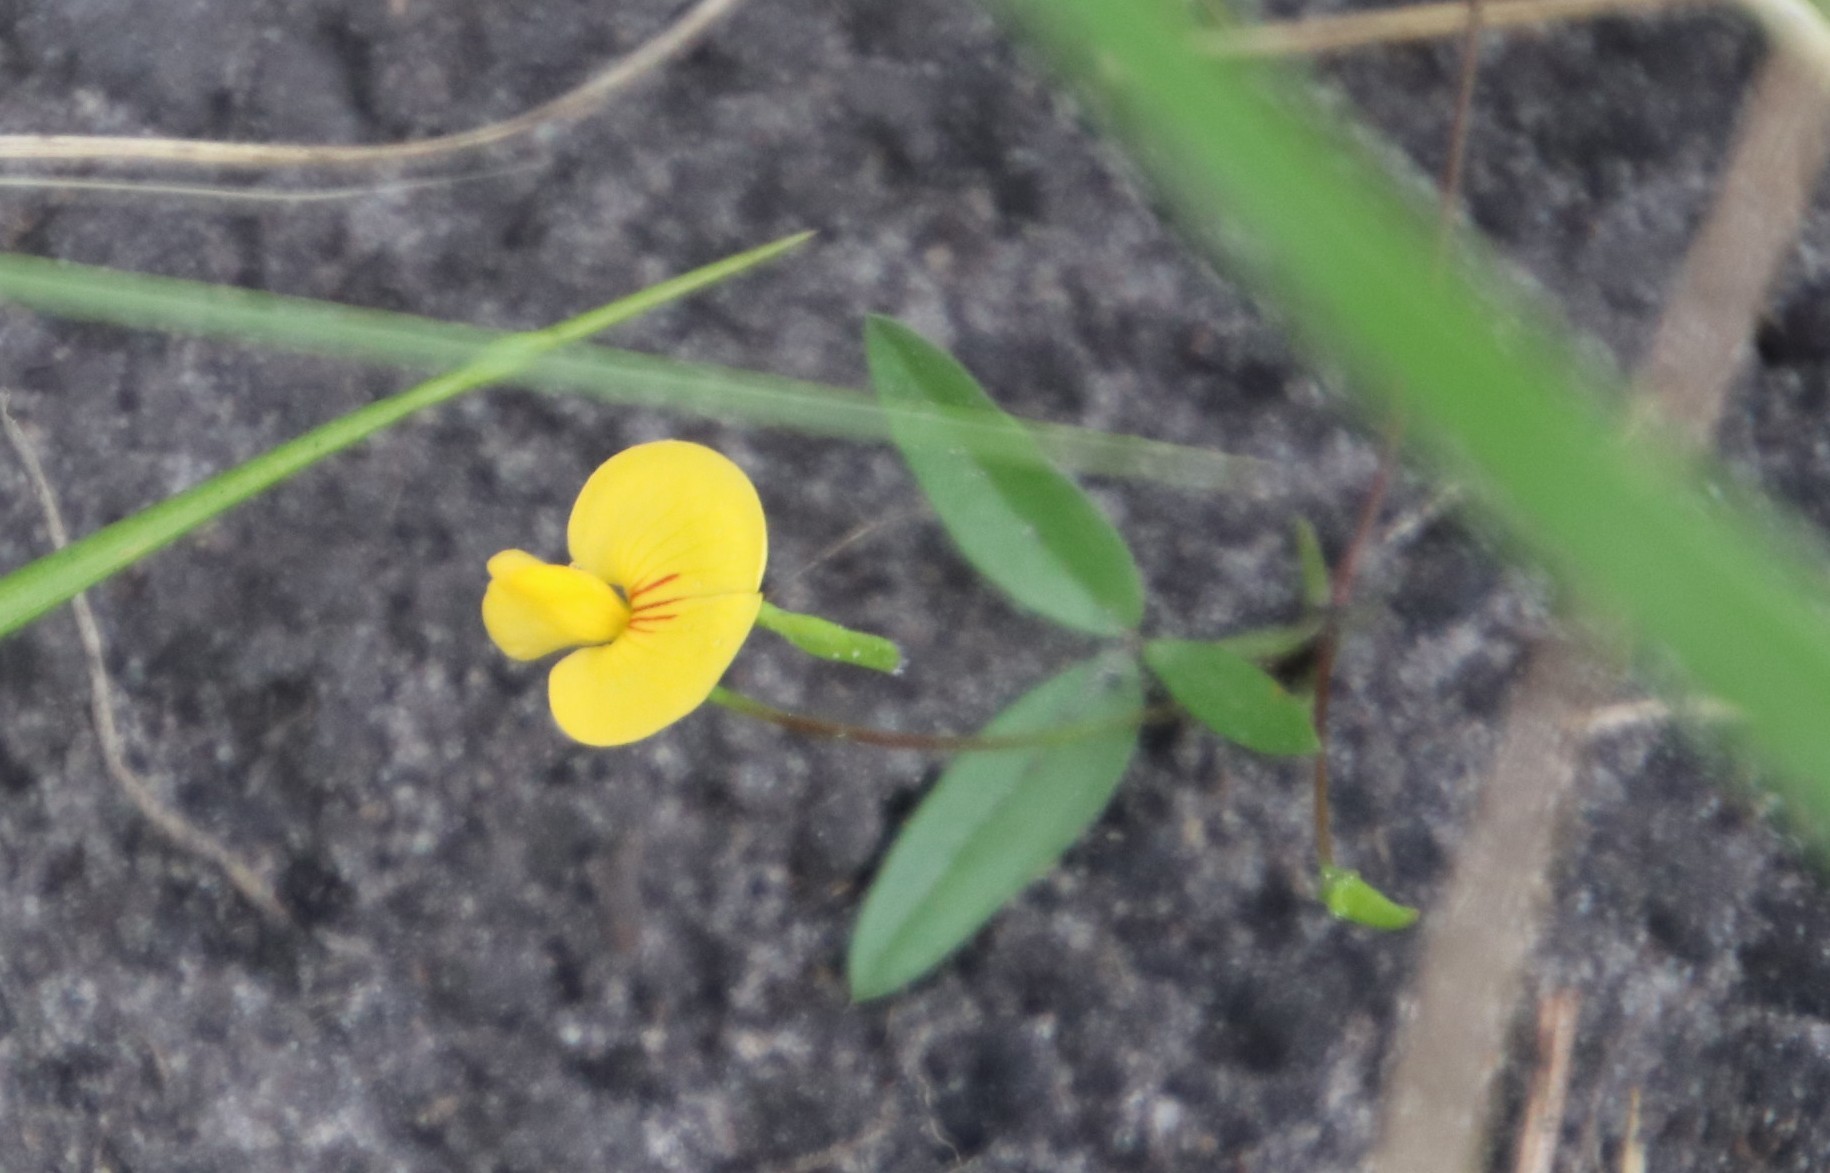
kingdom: Plantae
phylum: Tracheophyta
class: Magnoliopsida
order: Fabales
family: Fabaceae
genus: Zornia
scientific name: Zornia capensis
